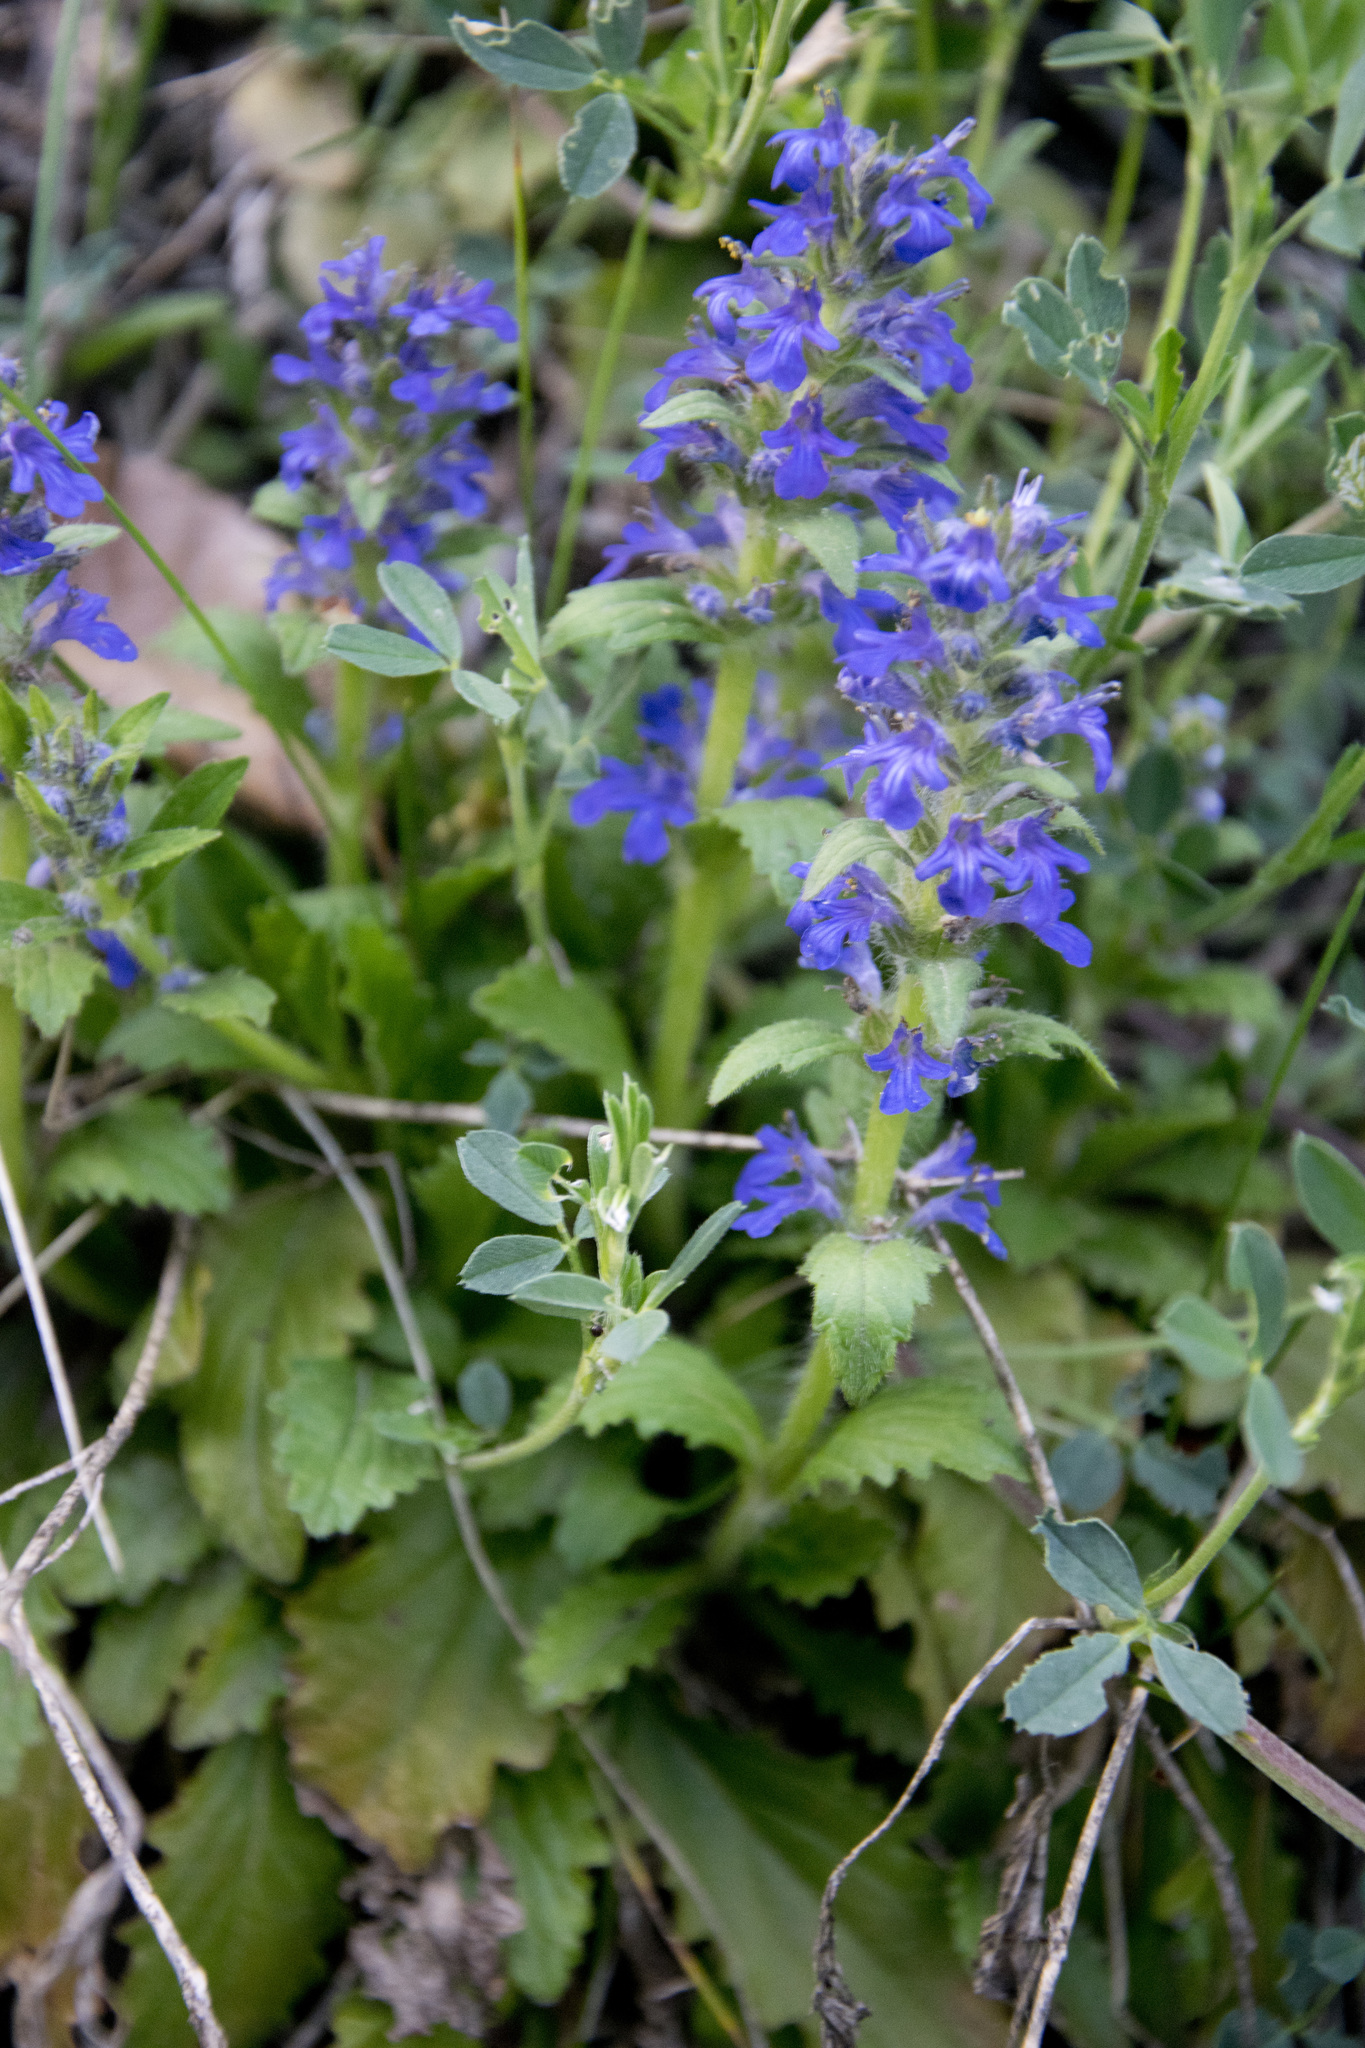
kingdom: Plantae
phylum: Tracheophyta
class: Magnoliopsida
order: Lamiales
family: Lamiaceae
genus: Ajuga
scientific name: Ajuga genevensis
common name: Blue bugle
